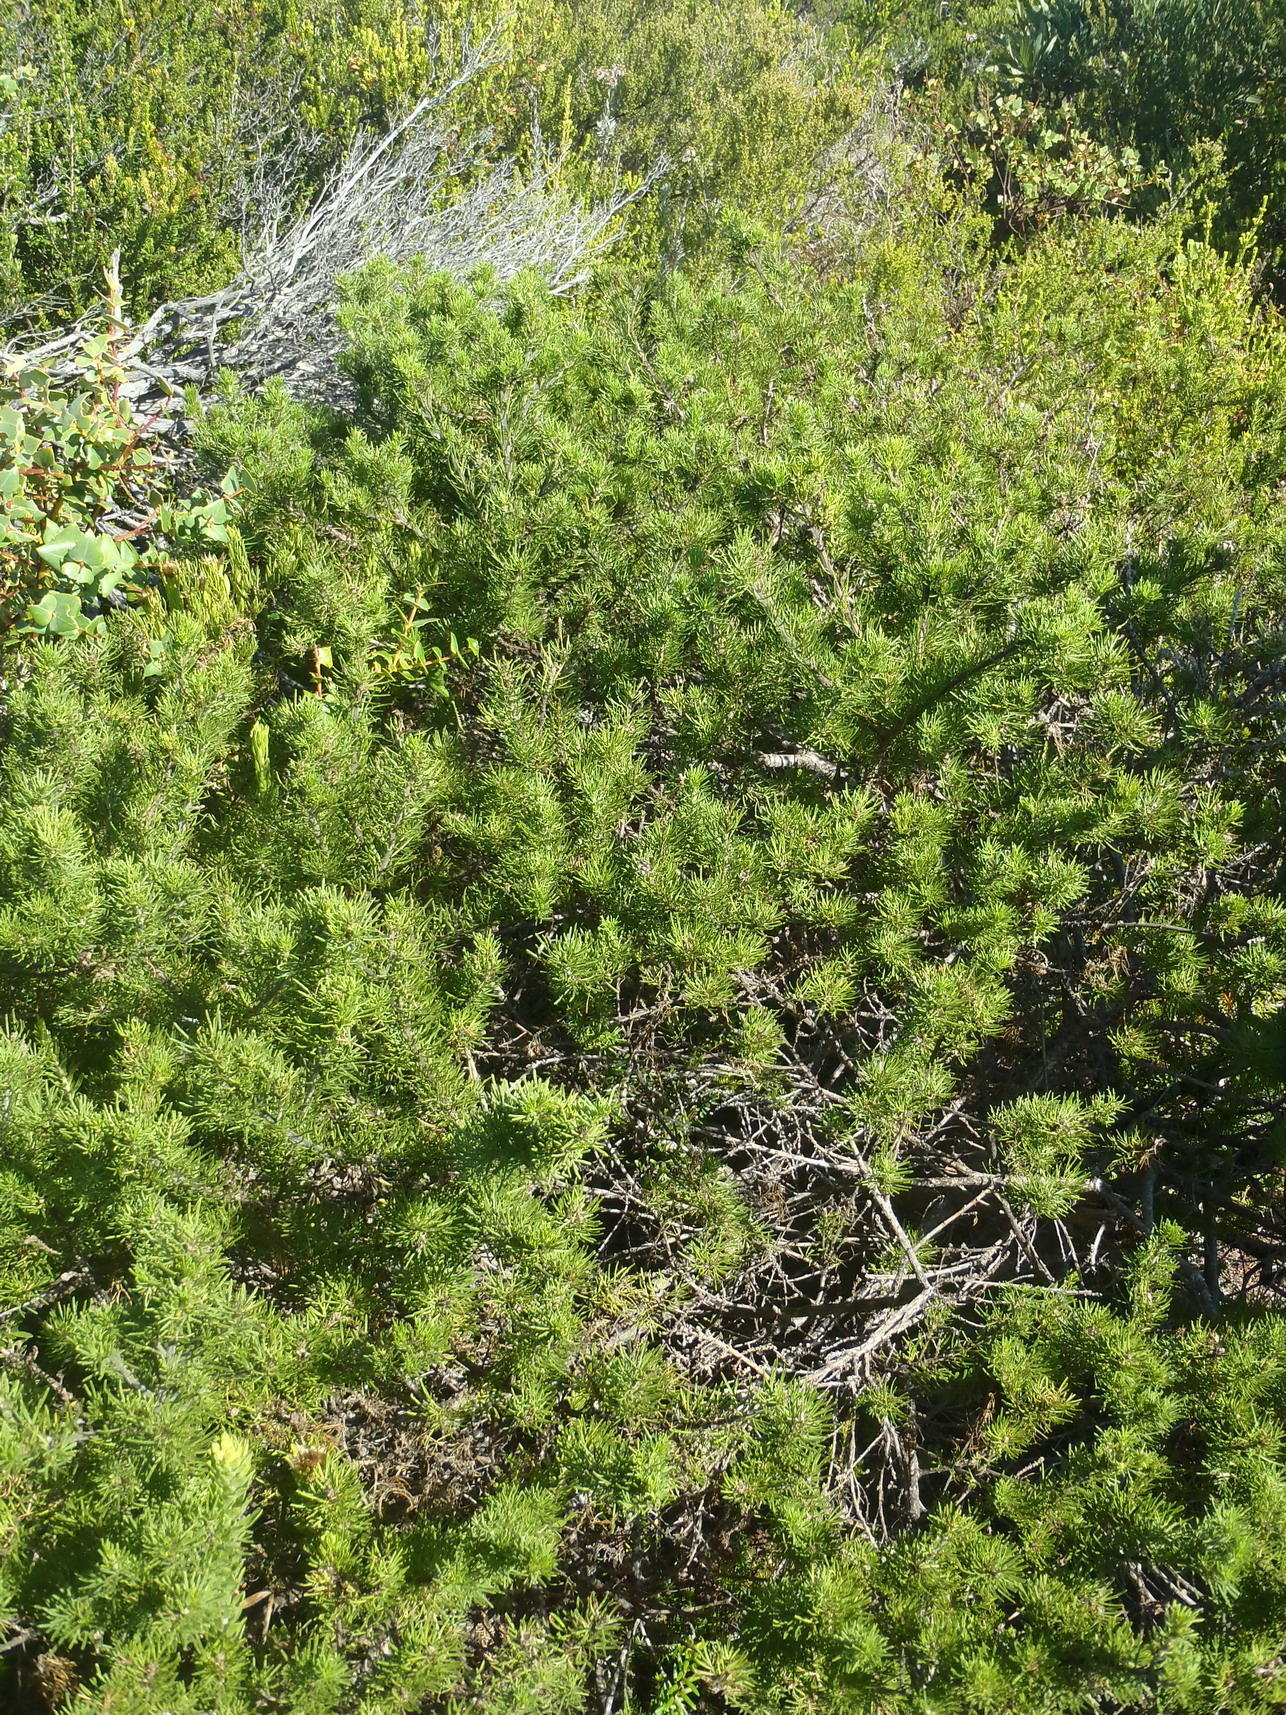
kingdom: Plantae
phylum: Tracheophyta
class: Magnoliopsida
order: Fabales
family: Fabaceae
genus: Psoralea
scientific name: Psoralea vanberkelae
